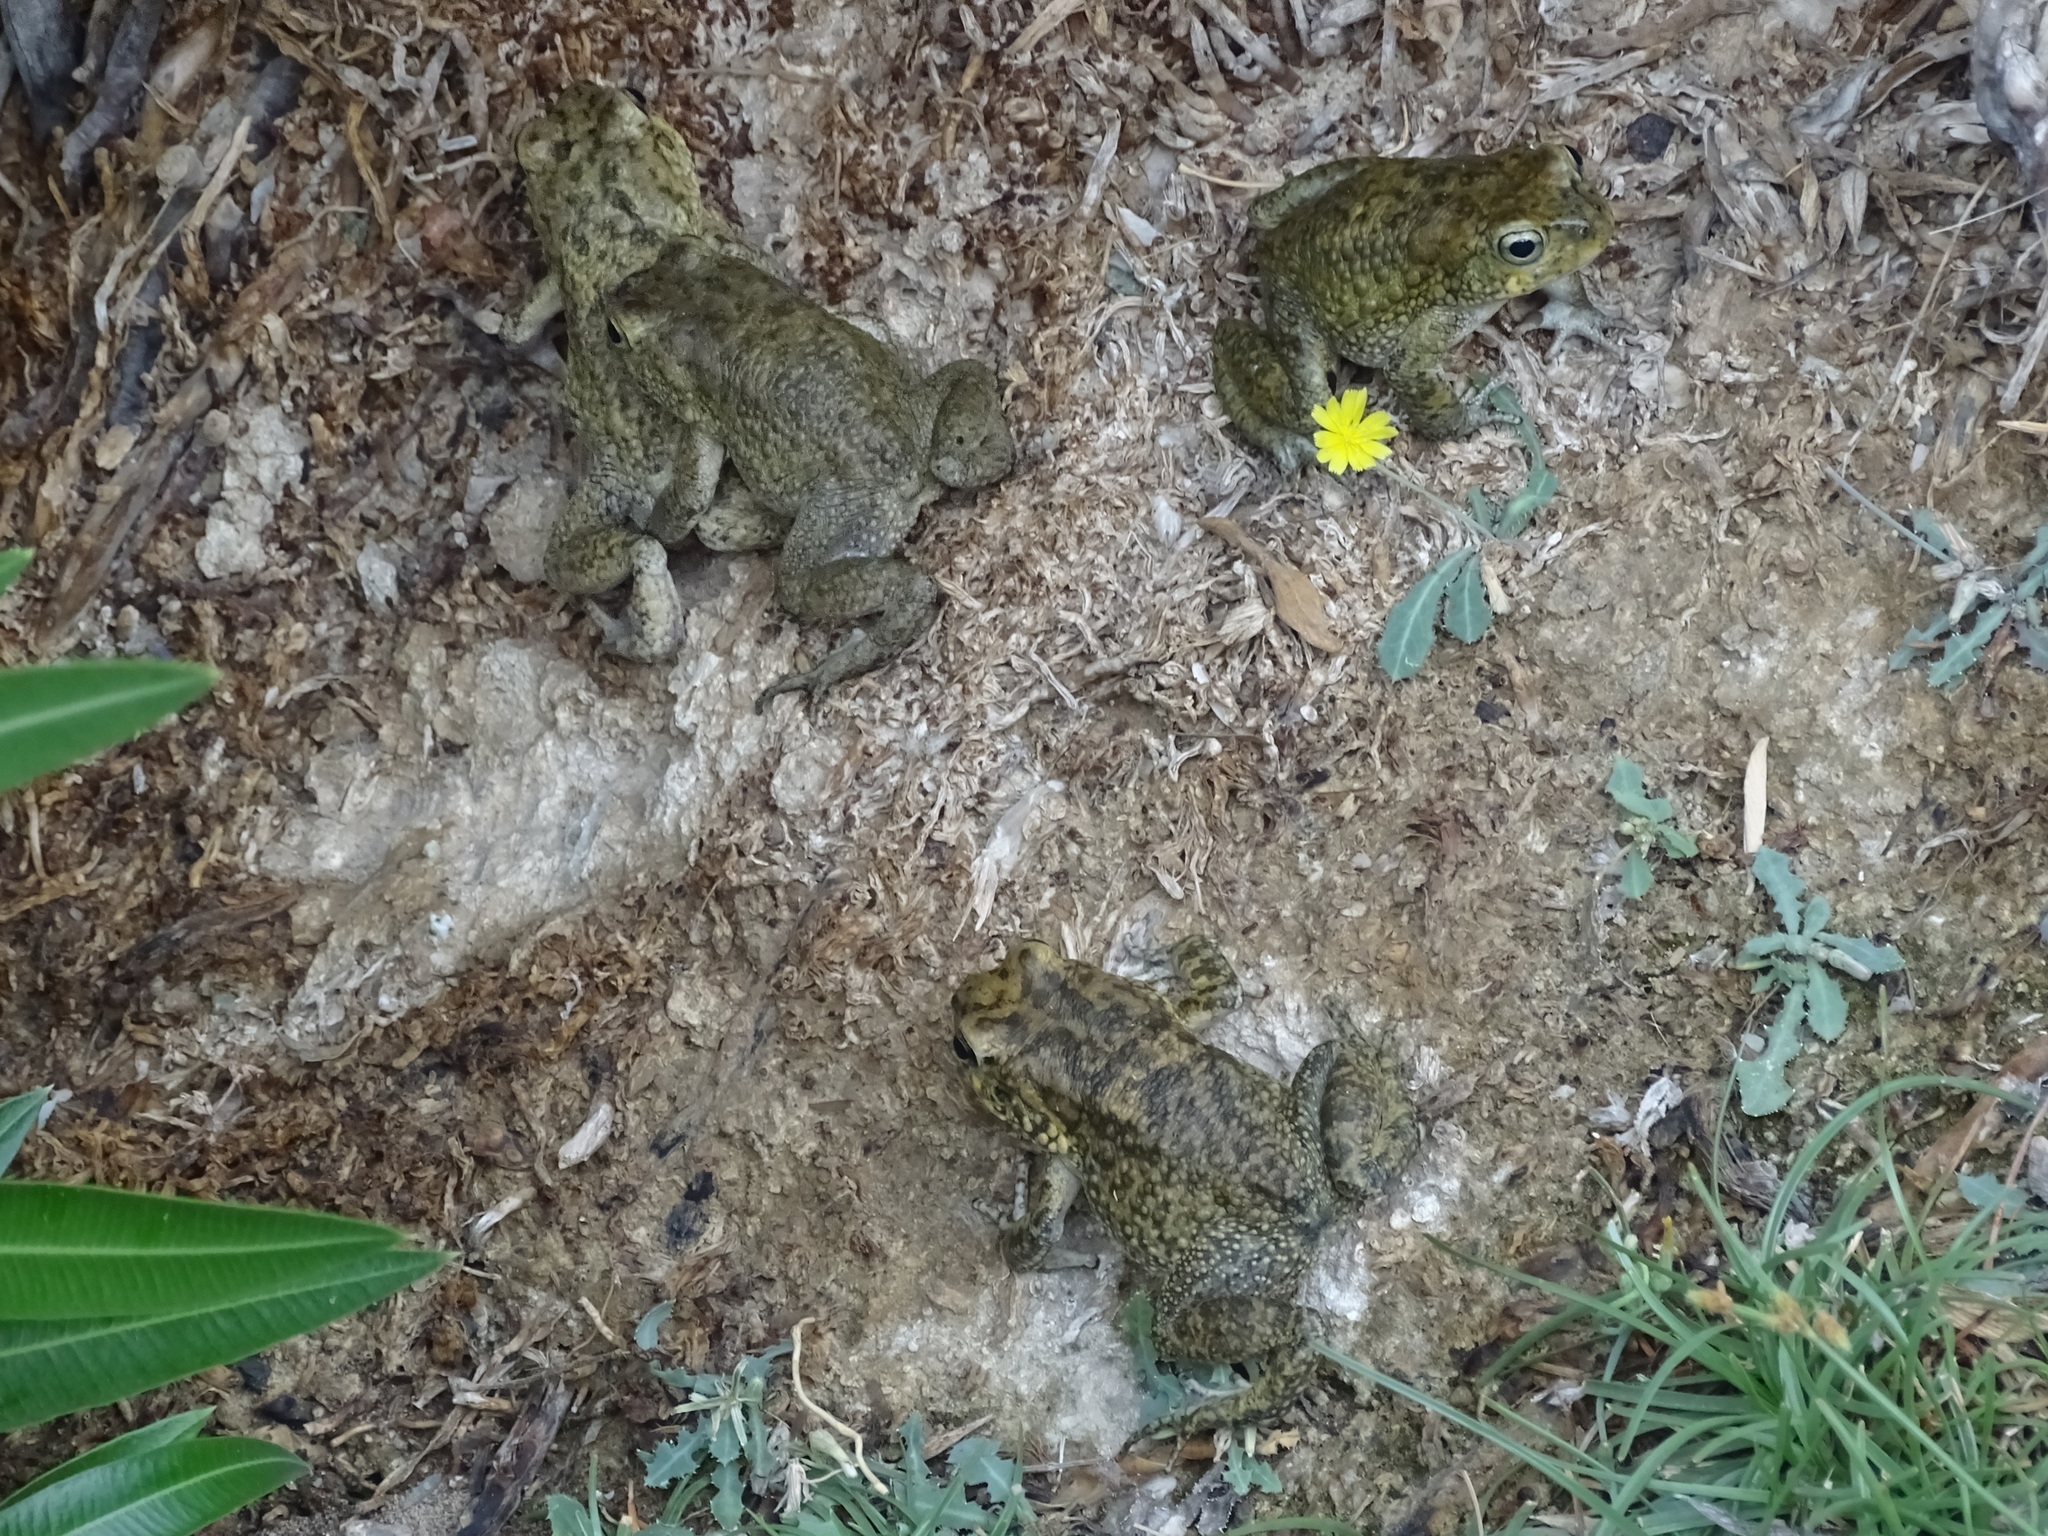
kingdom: Animalia
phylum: Chordata
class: Amphibia
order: Anura
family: Bufonidae
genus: Sclerophrys
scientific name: Sclerophrys arabica
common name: Arabian toad
